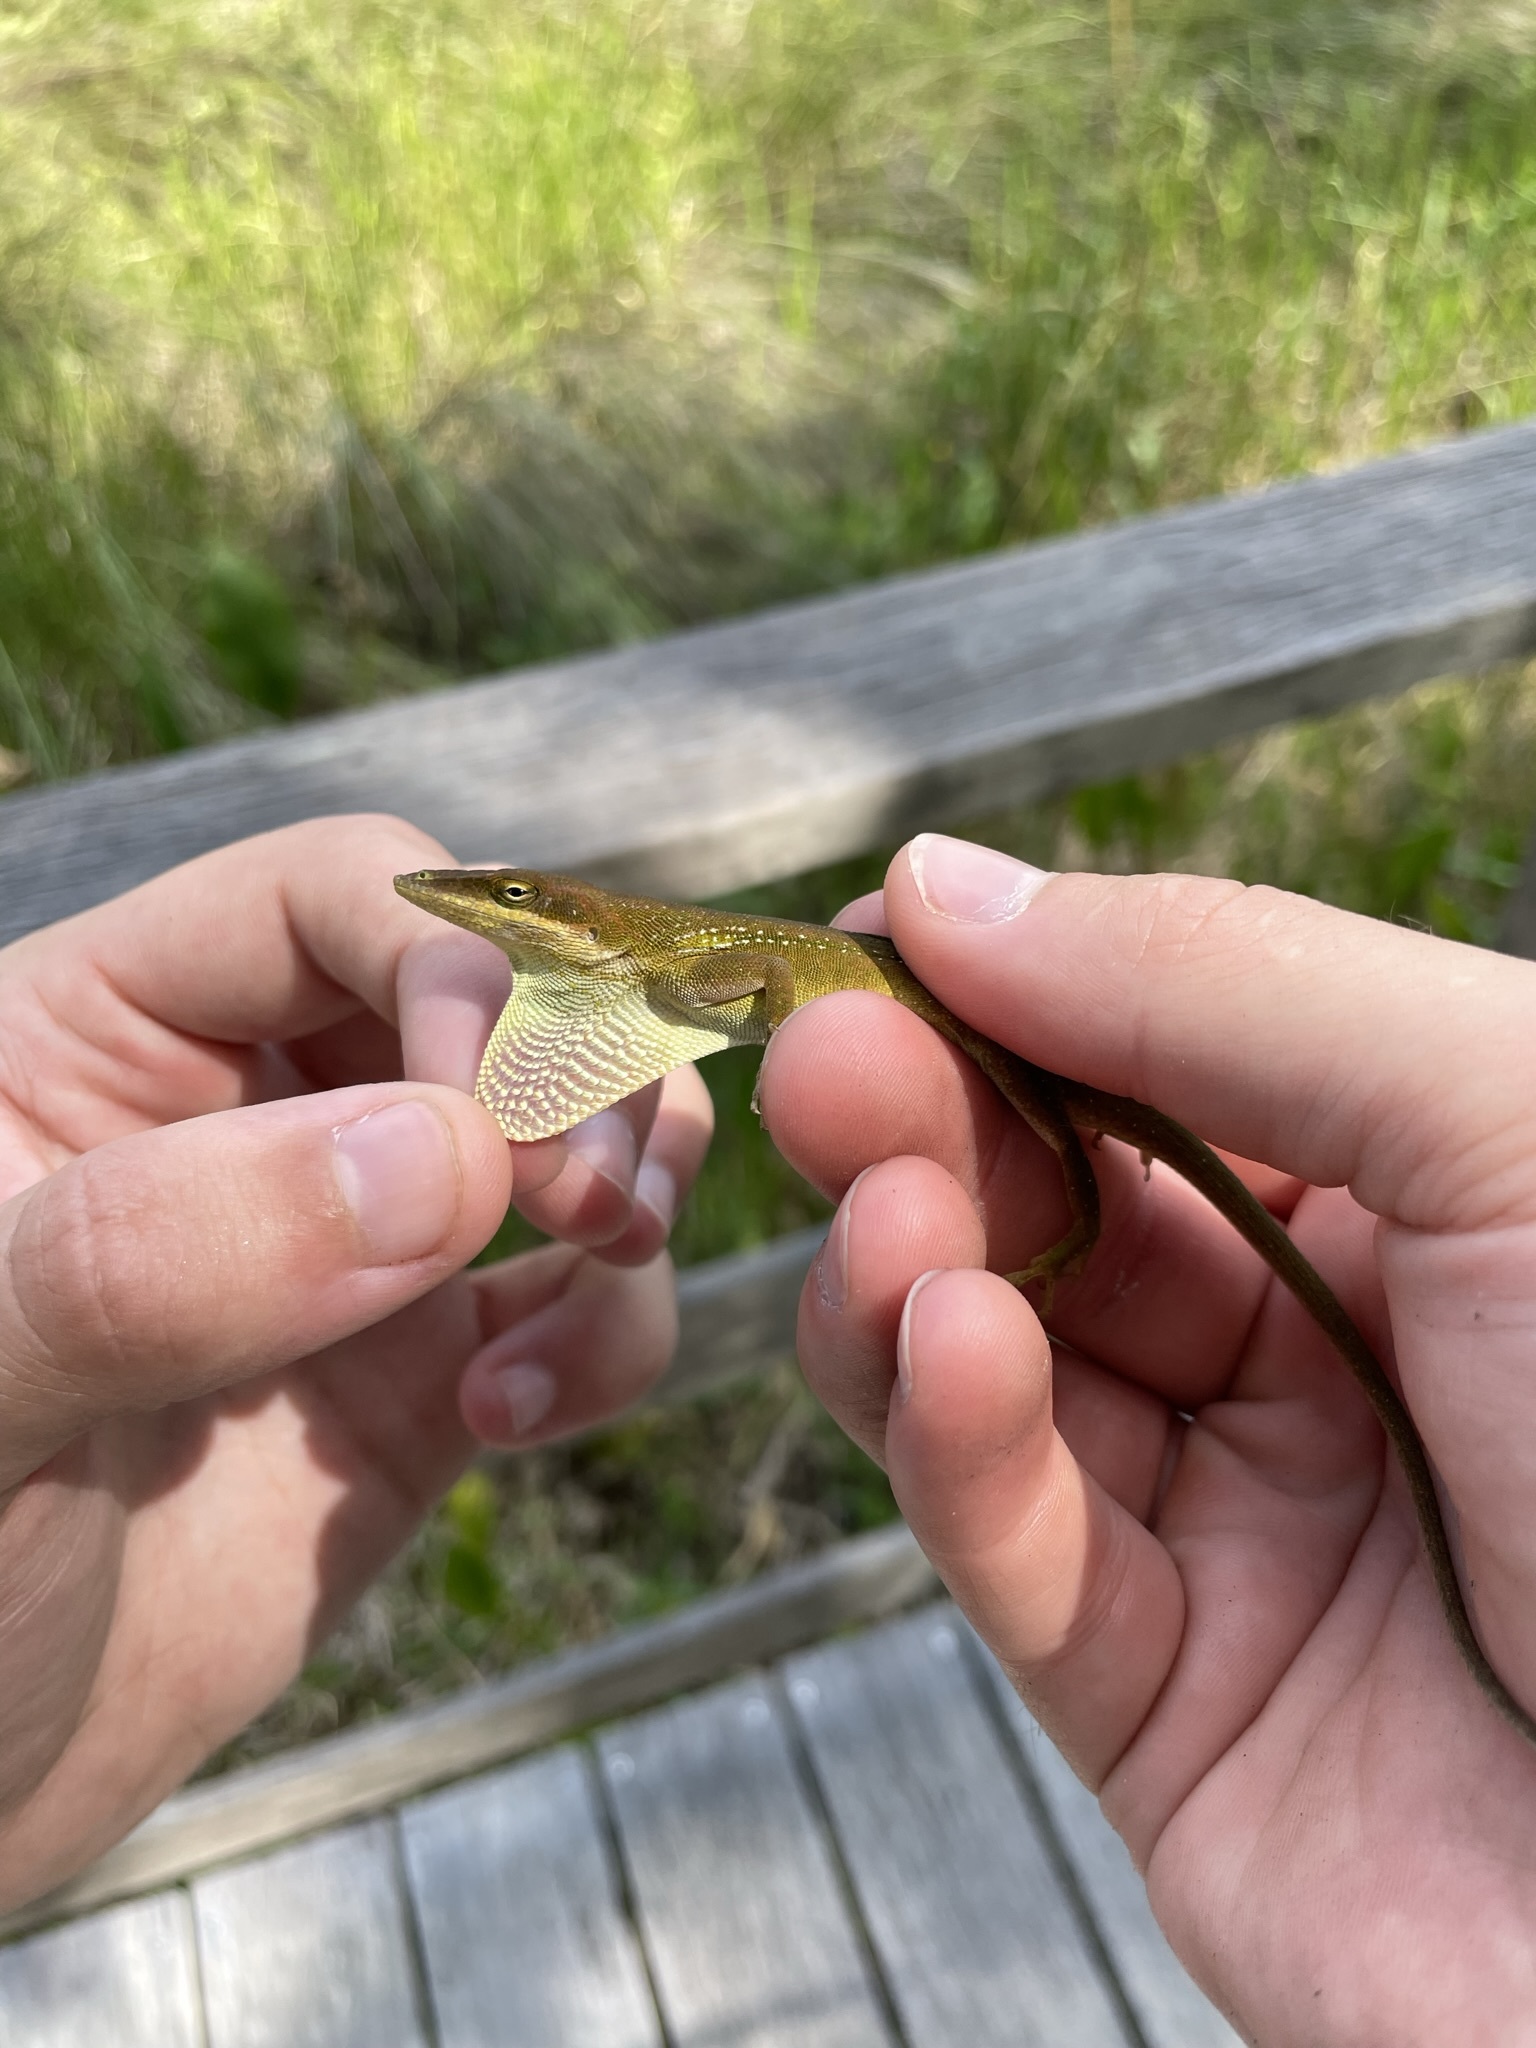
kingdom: Animalia
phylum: Chordata
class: Squamata
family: Dactyloidae
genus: Anolis
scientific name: Anolis carolinensis
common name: Green anole
